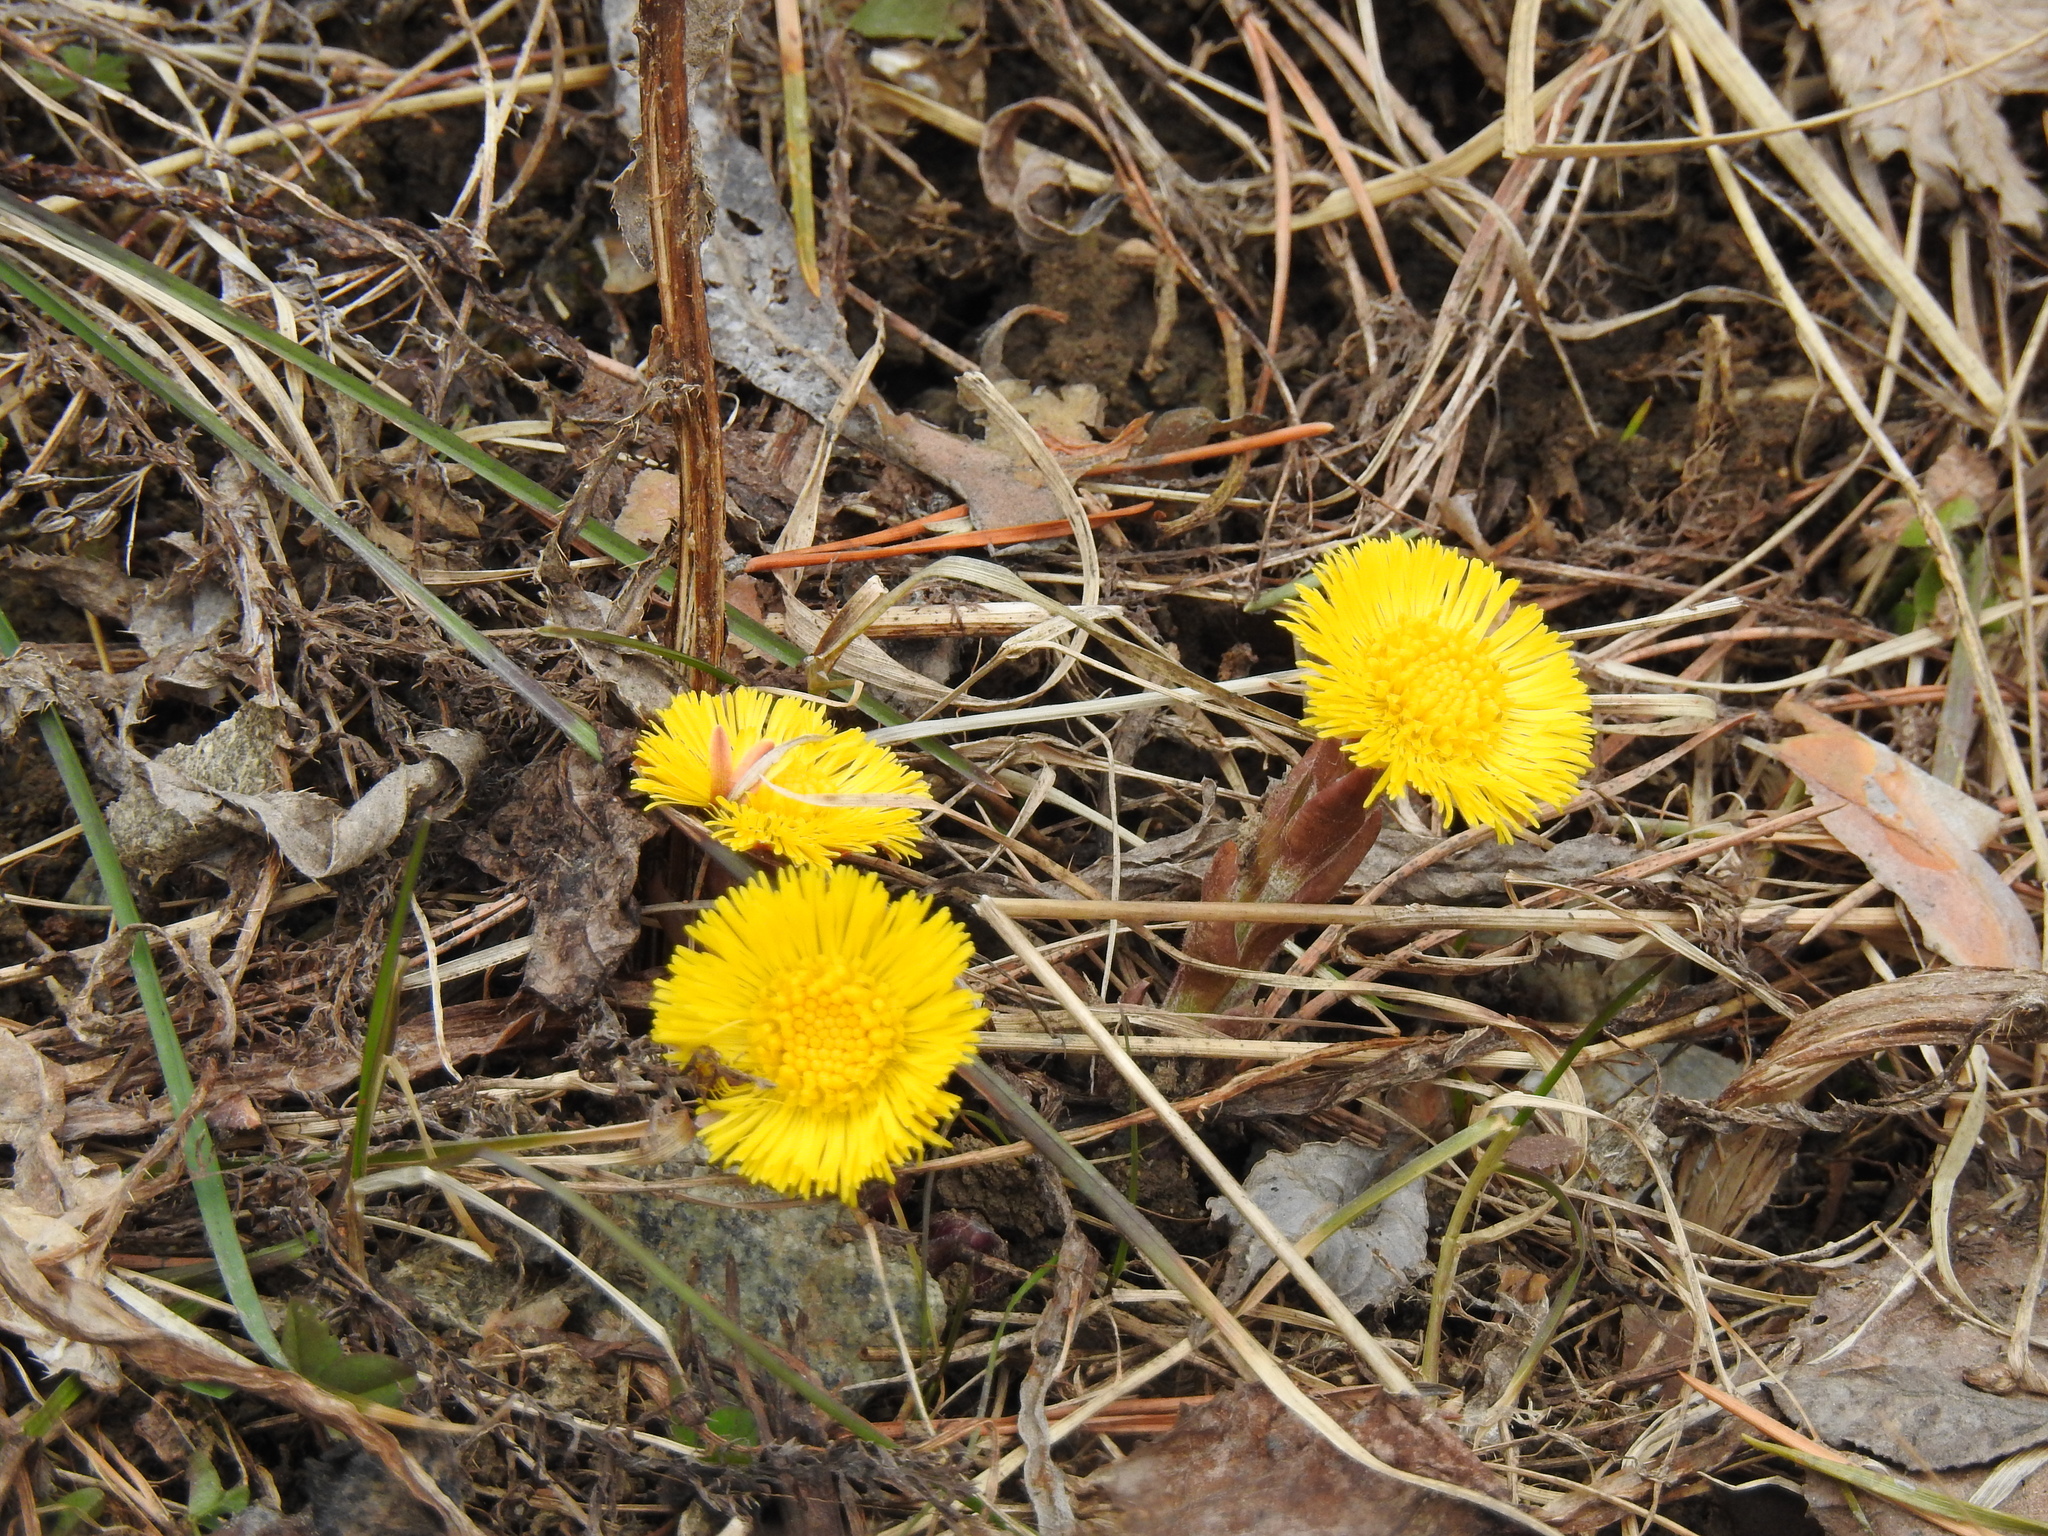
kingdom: Plantae
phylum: Tracheophyta
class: Magnoliopsida
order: Asterales
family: Asteraceae
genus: Tussilago
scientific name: Tussilago farfara
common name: Coltsfoot
